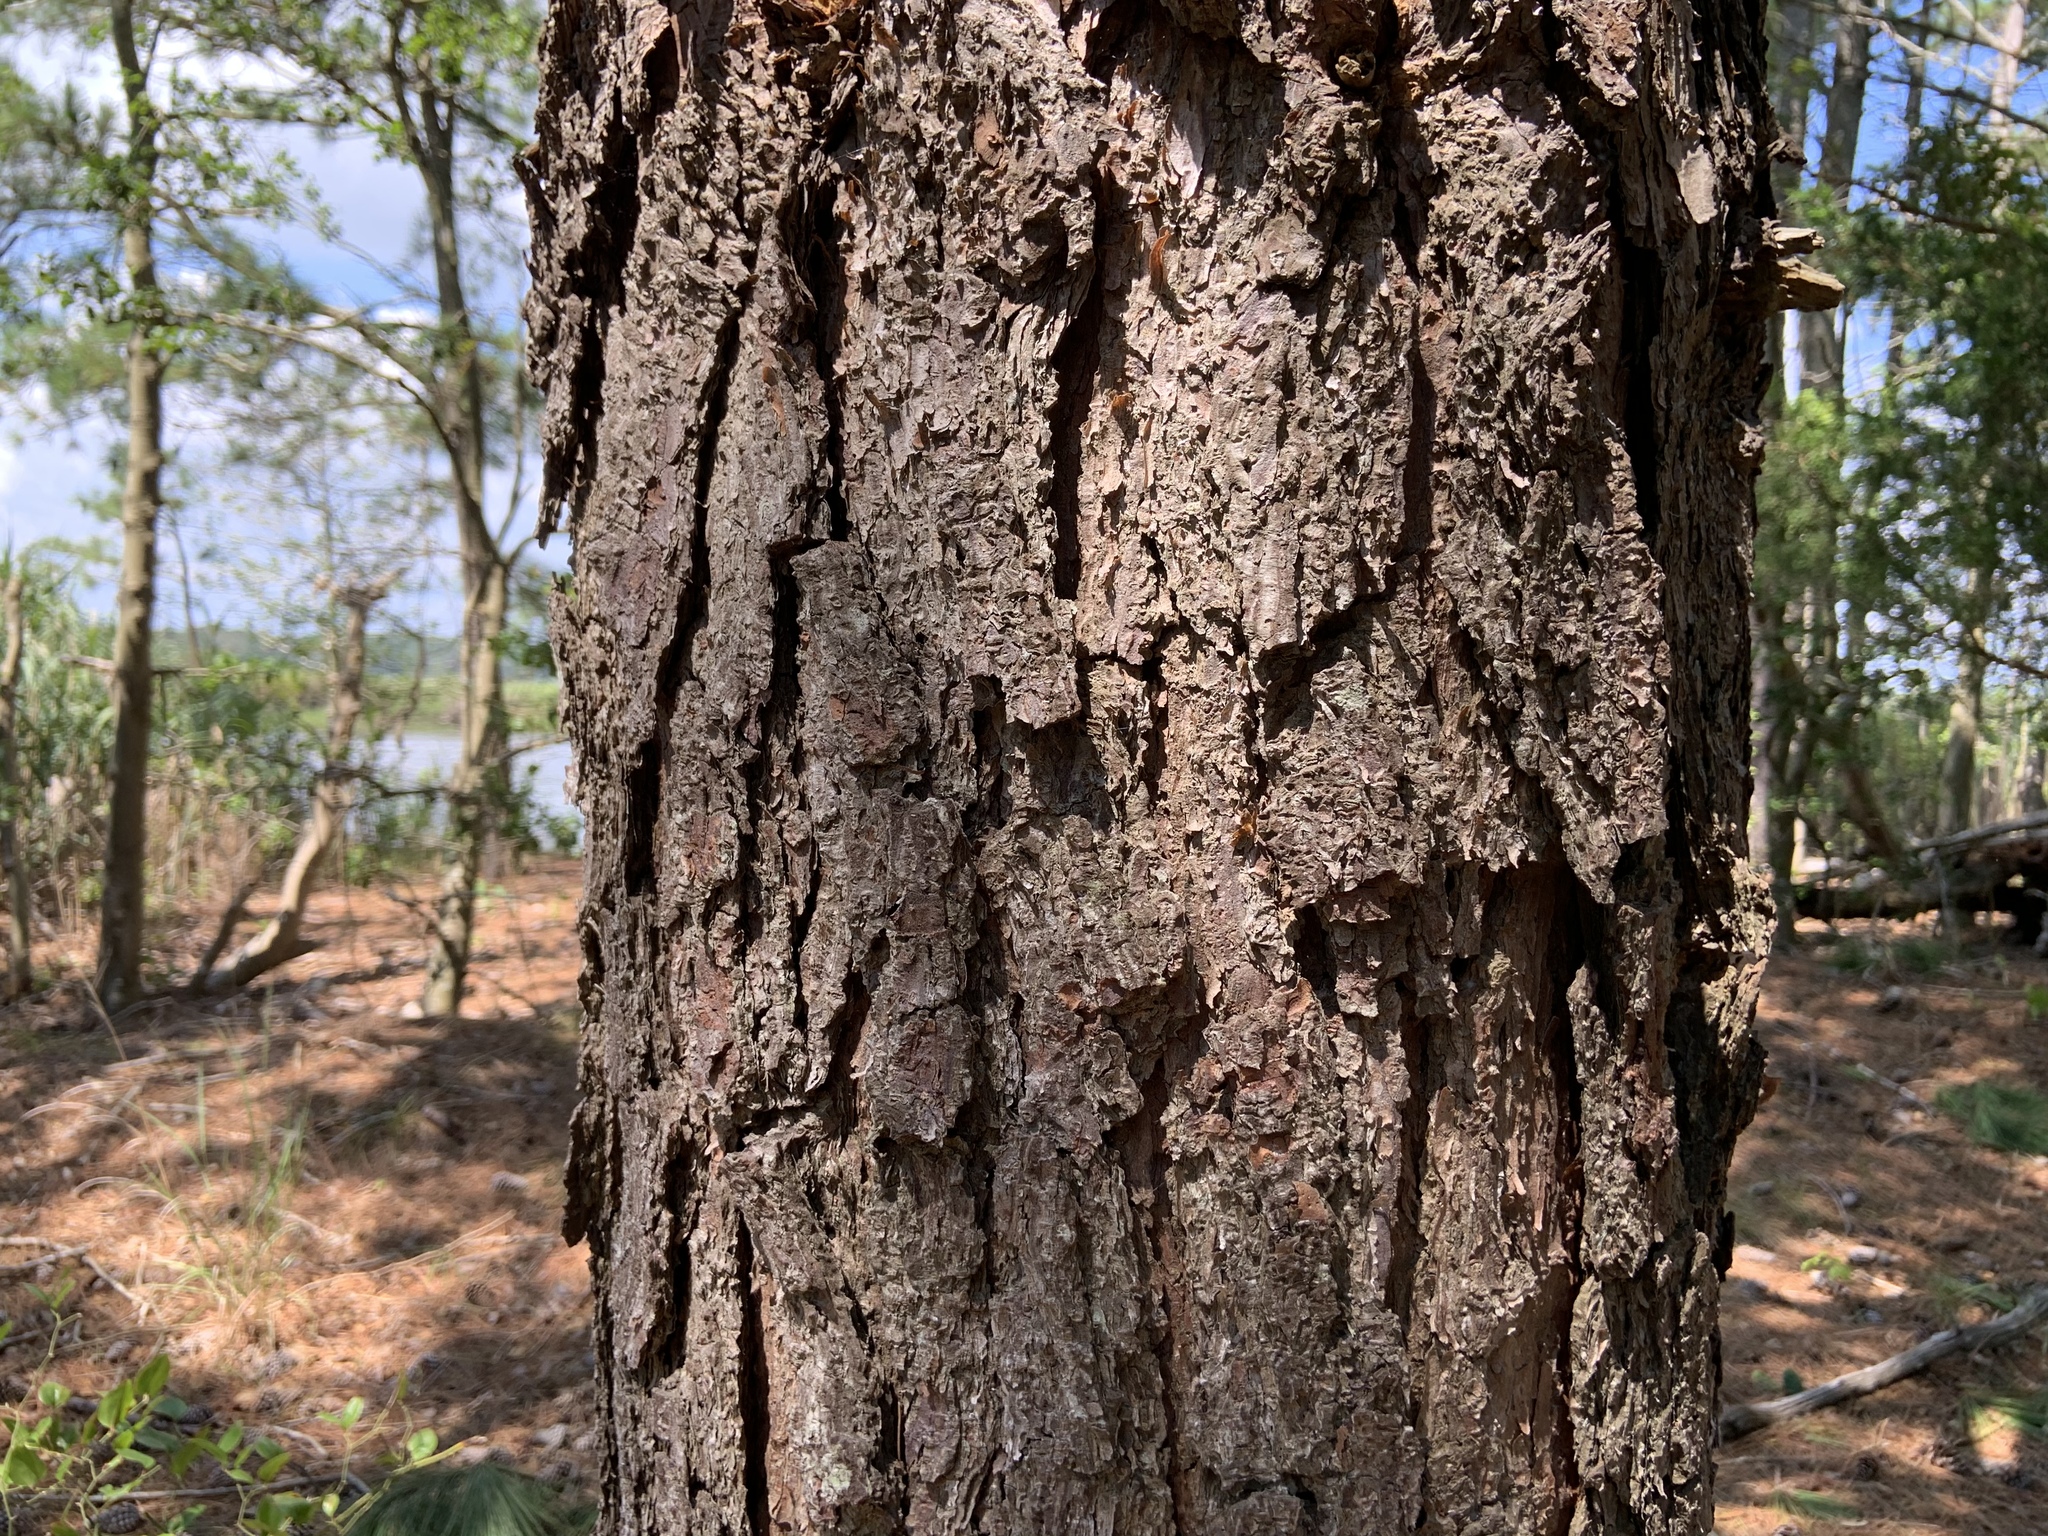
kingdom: Plantae
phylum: Tracheophyta
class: Pinopsida
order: Pinales
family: Pinaceae
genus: Pinus
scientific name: Pinus taeda
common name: Loblolly pine
